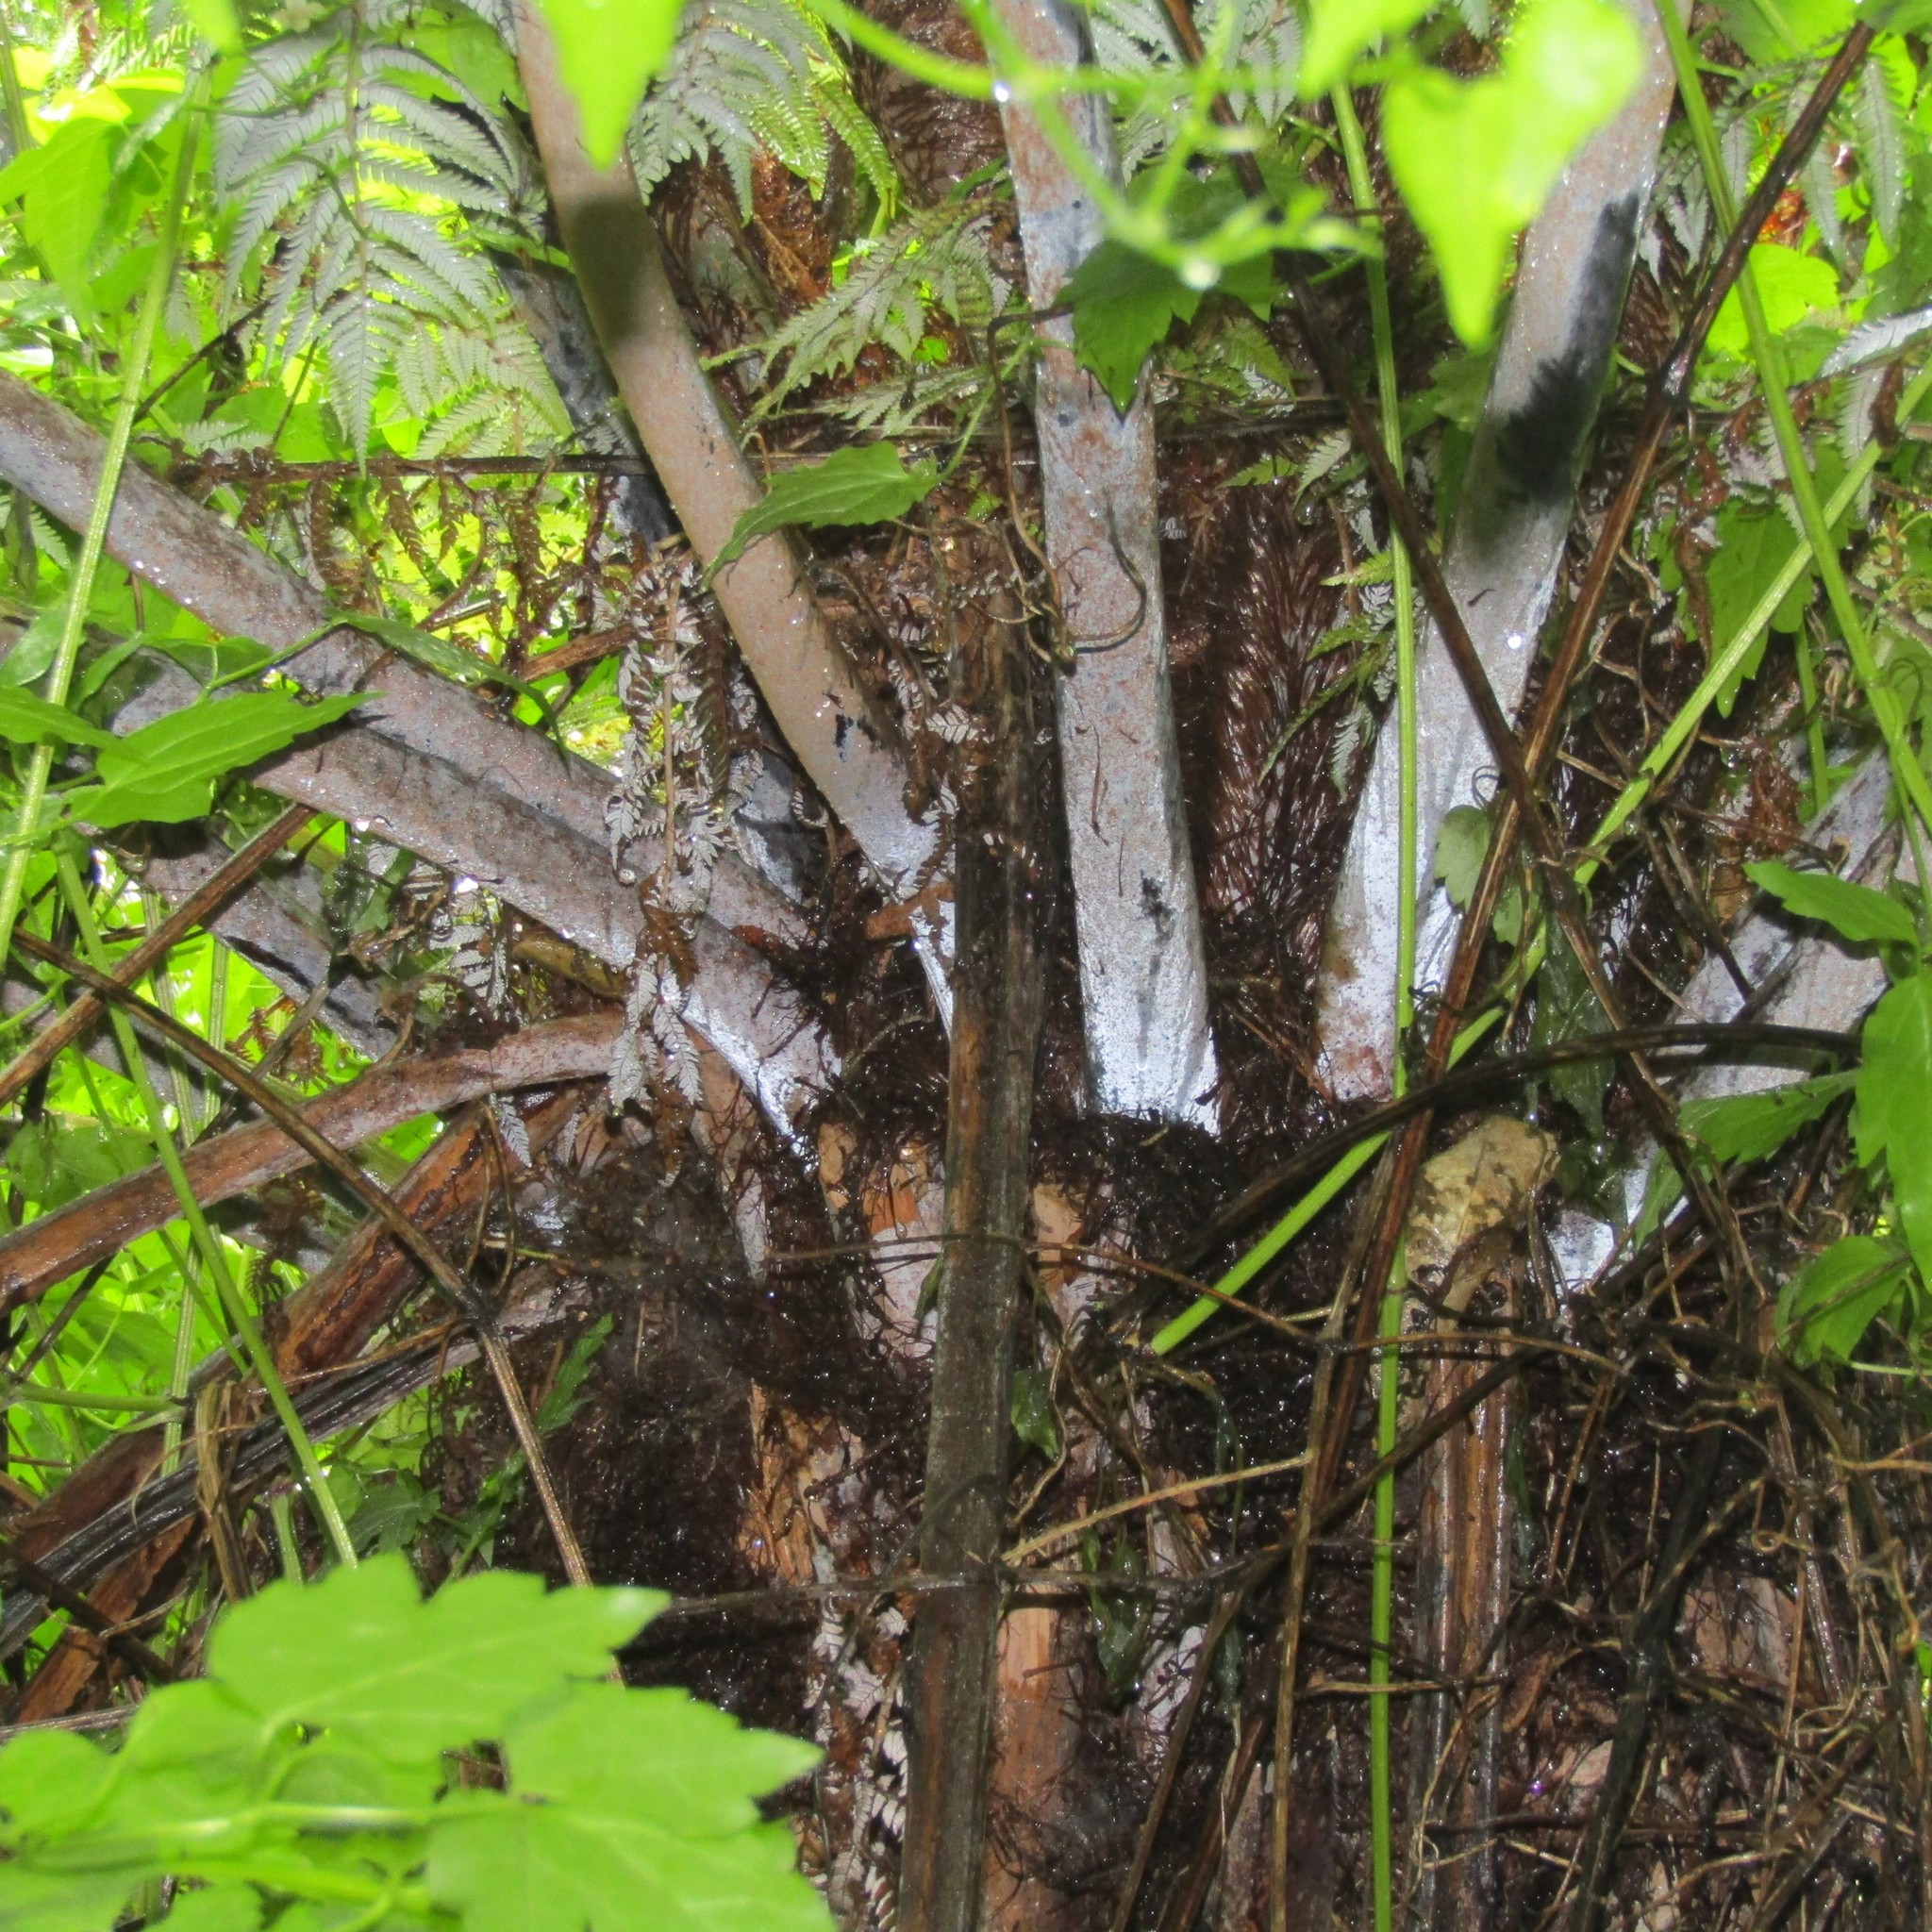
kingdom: Plantae
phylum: Tracheophyta
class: Magnoliopsida
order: Ranunculales
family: Ranunculaceae
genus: Clematis
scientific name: Clematis vitalba
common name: Evergreen clematis
